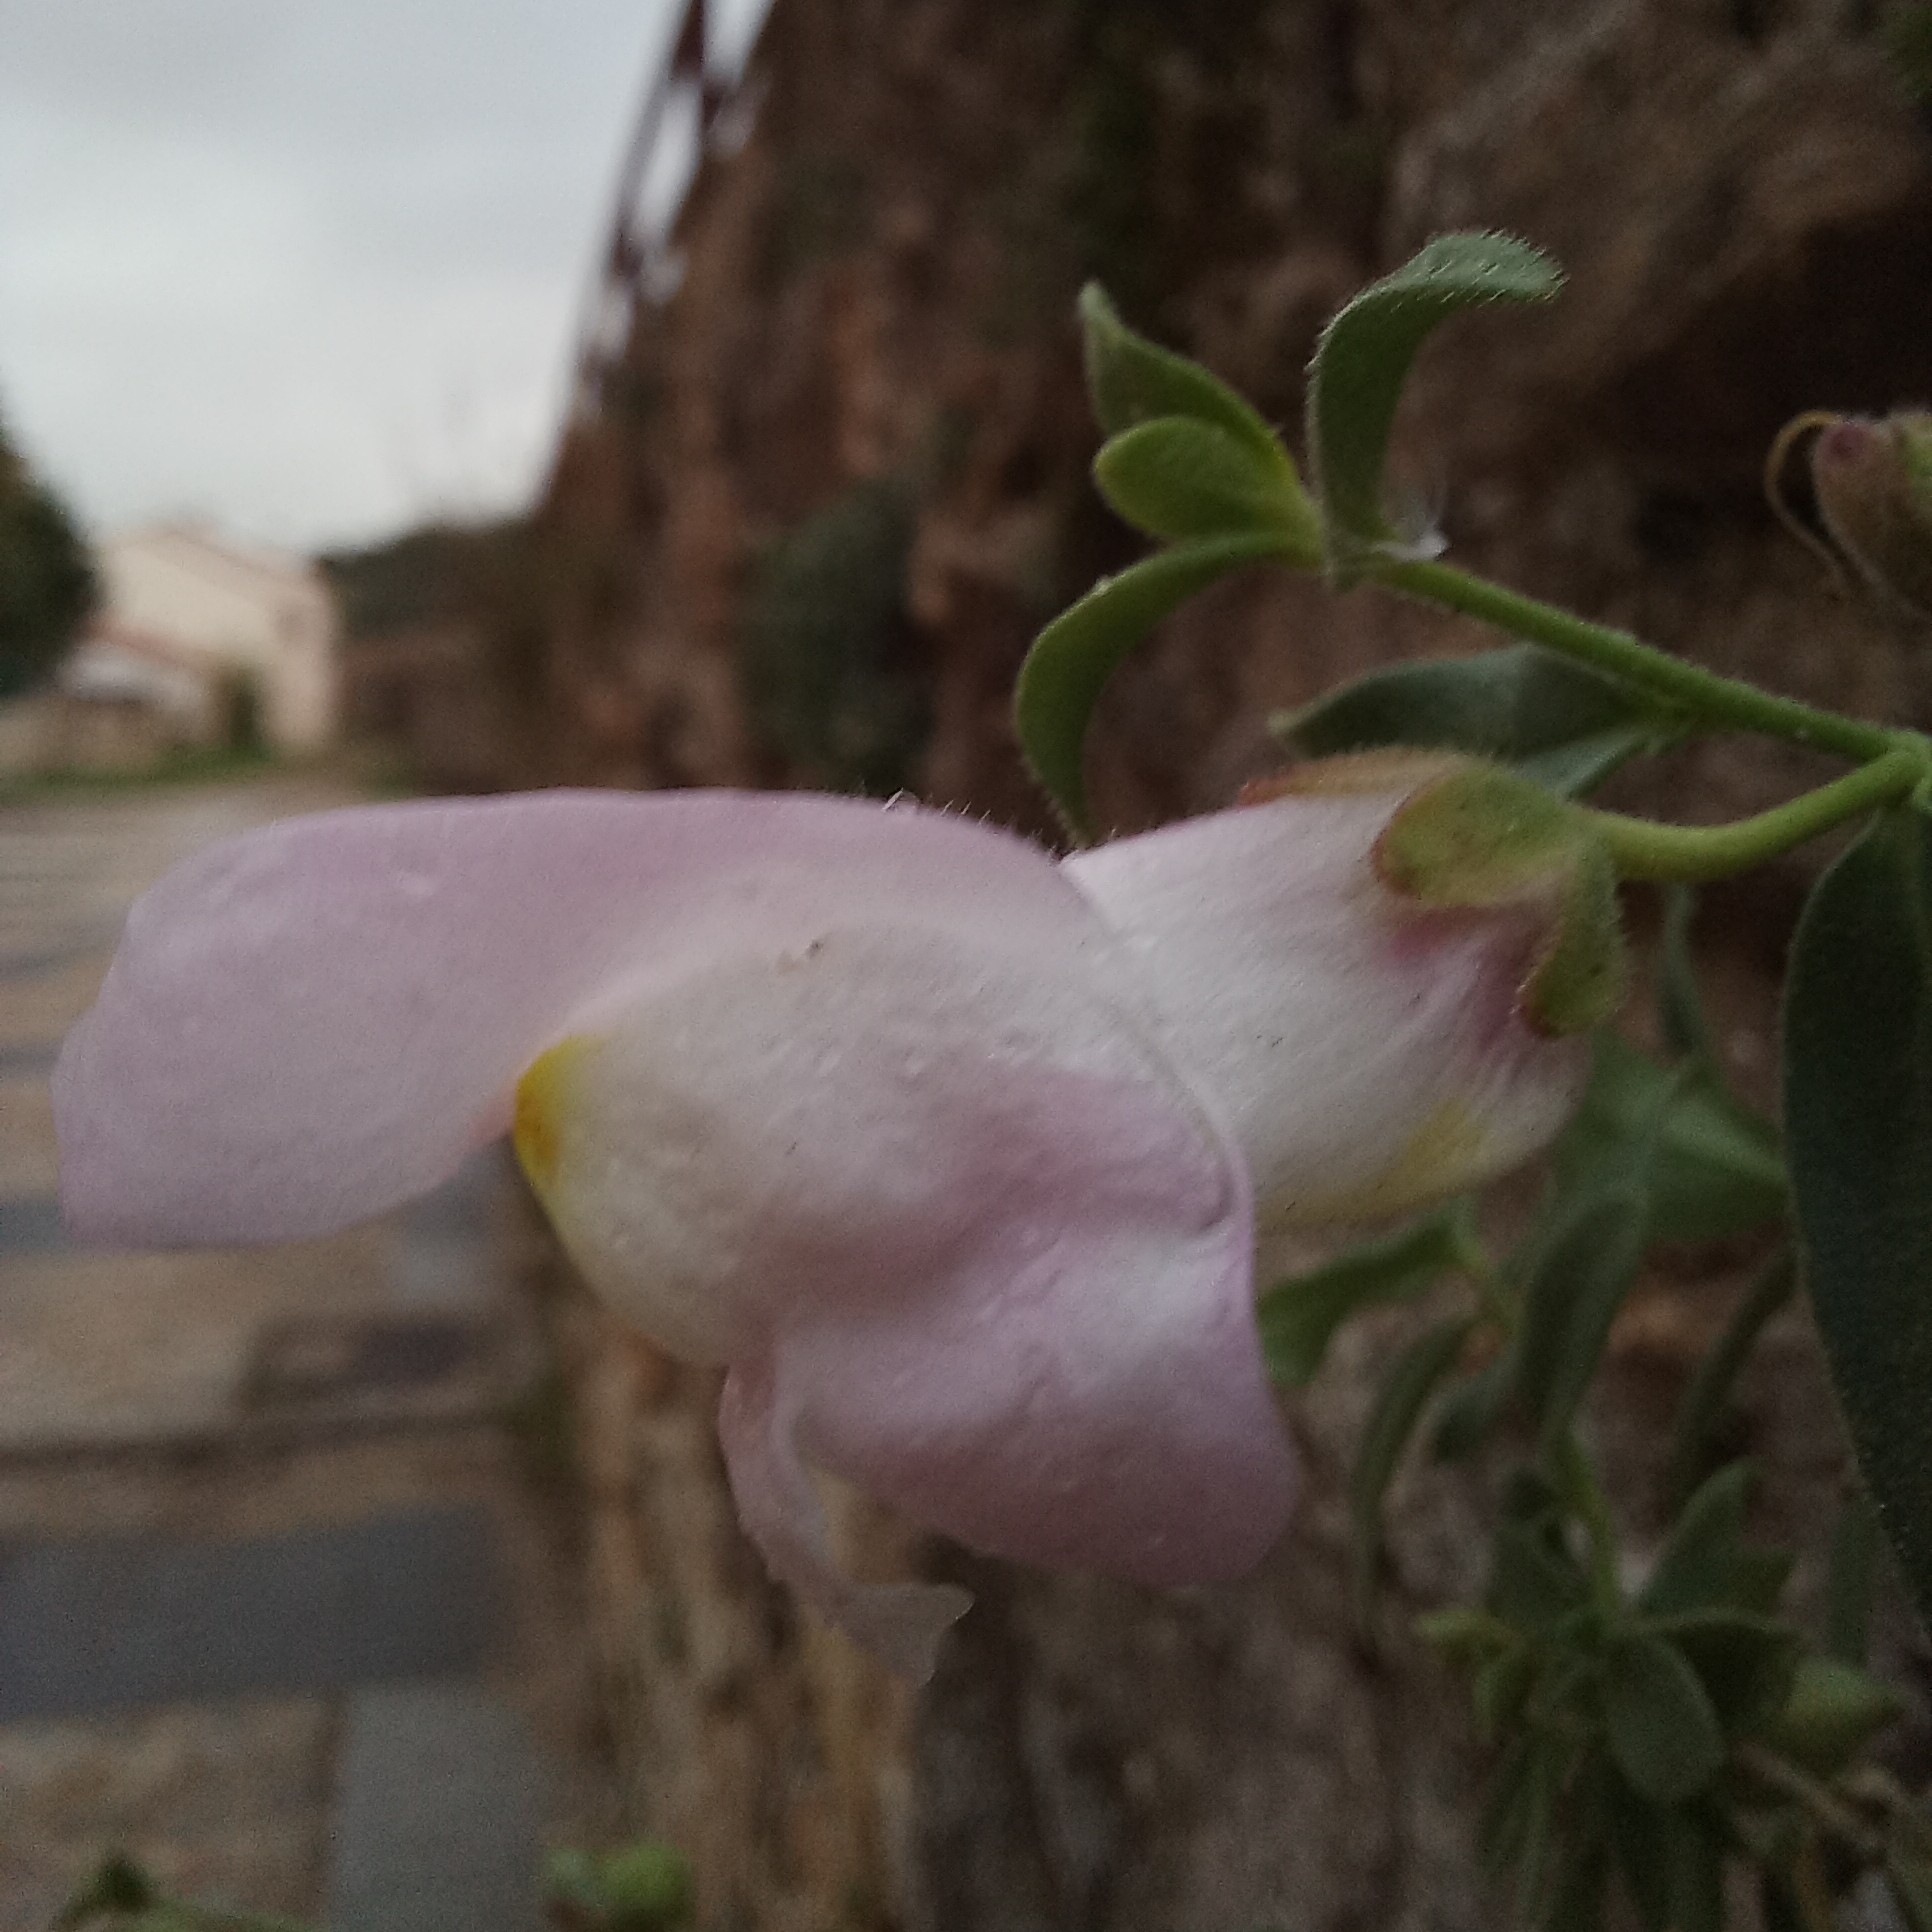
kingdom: Plantae
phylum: Tracheophyta
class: Magnoliopsida
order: Lamiales
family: Plantaginaceae
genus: Antirrhinum
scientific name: Antirrhinum graniticum
